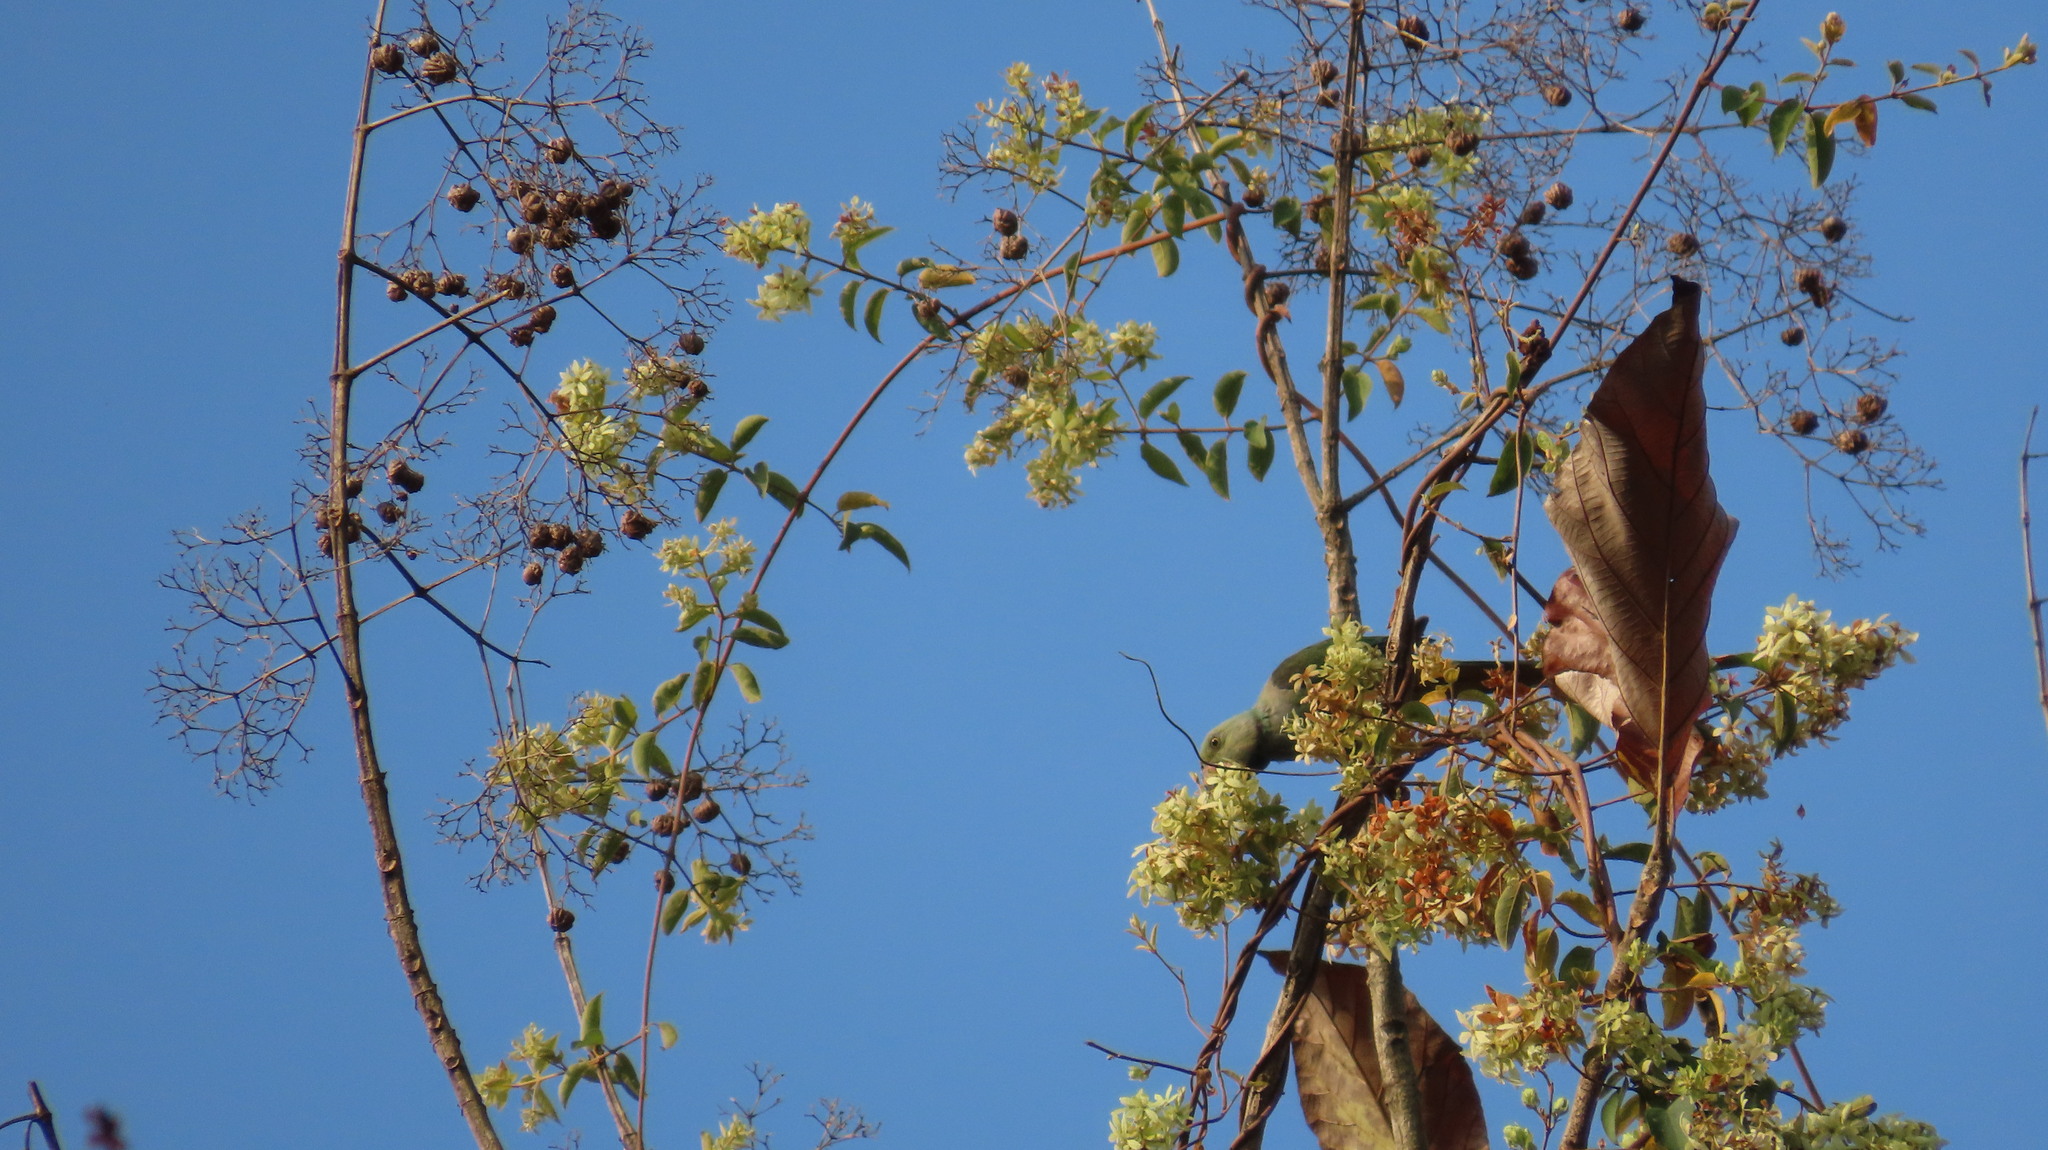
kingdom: Animalia
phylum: Chordata
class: Aves
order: Psittaciformes
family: Psittacidae
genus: Psittacula
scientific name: Psittacula columboides
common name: Blue-winged parakeet
